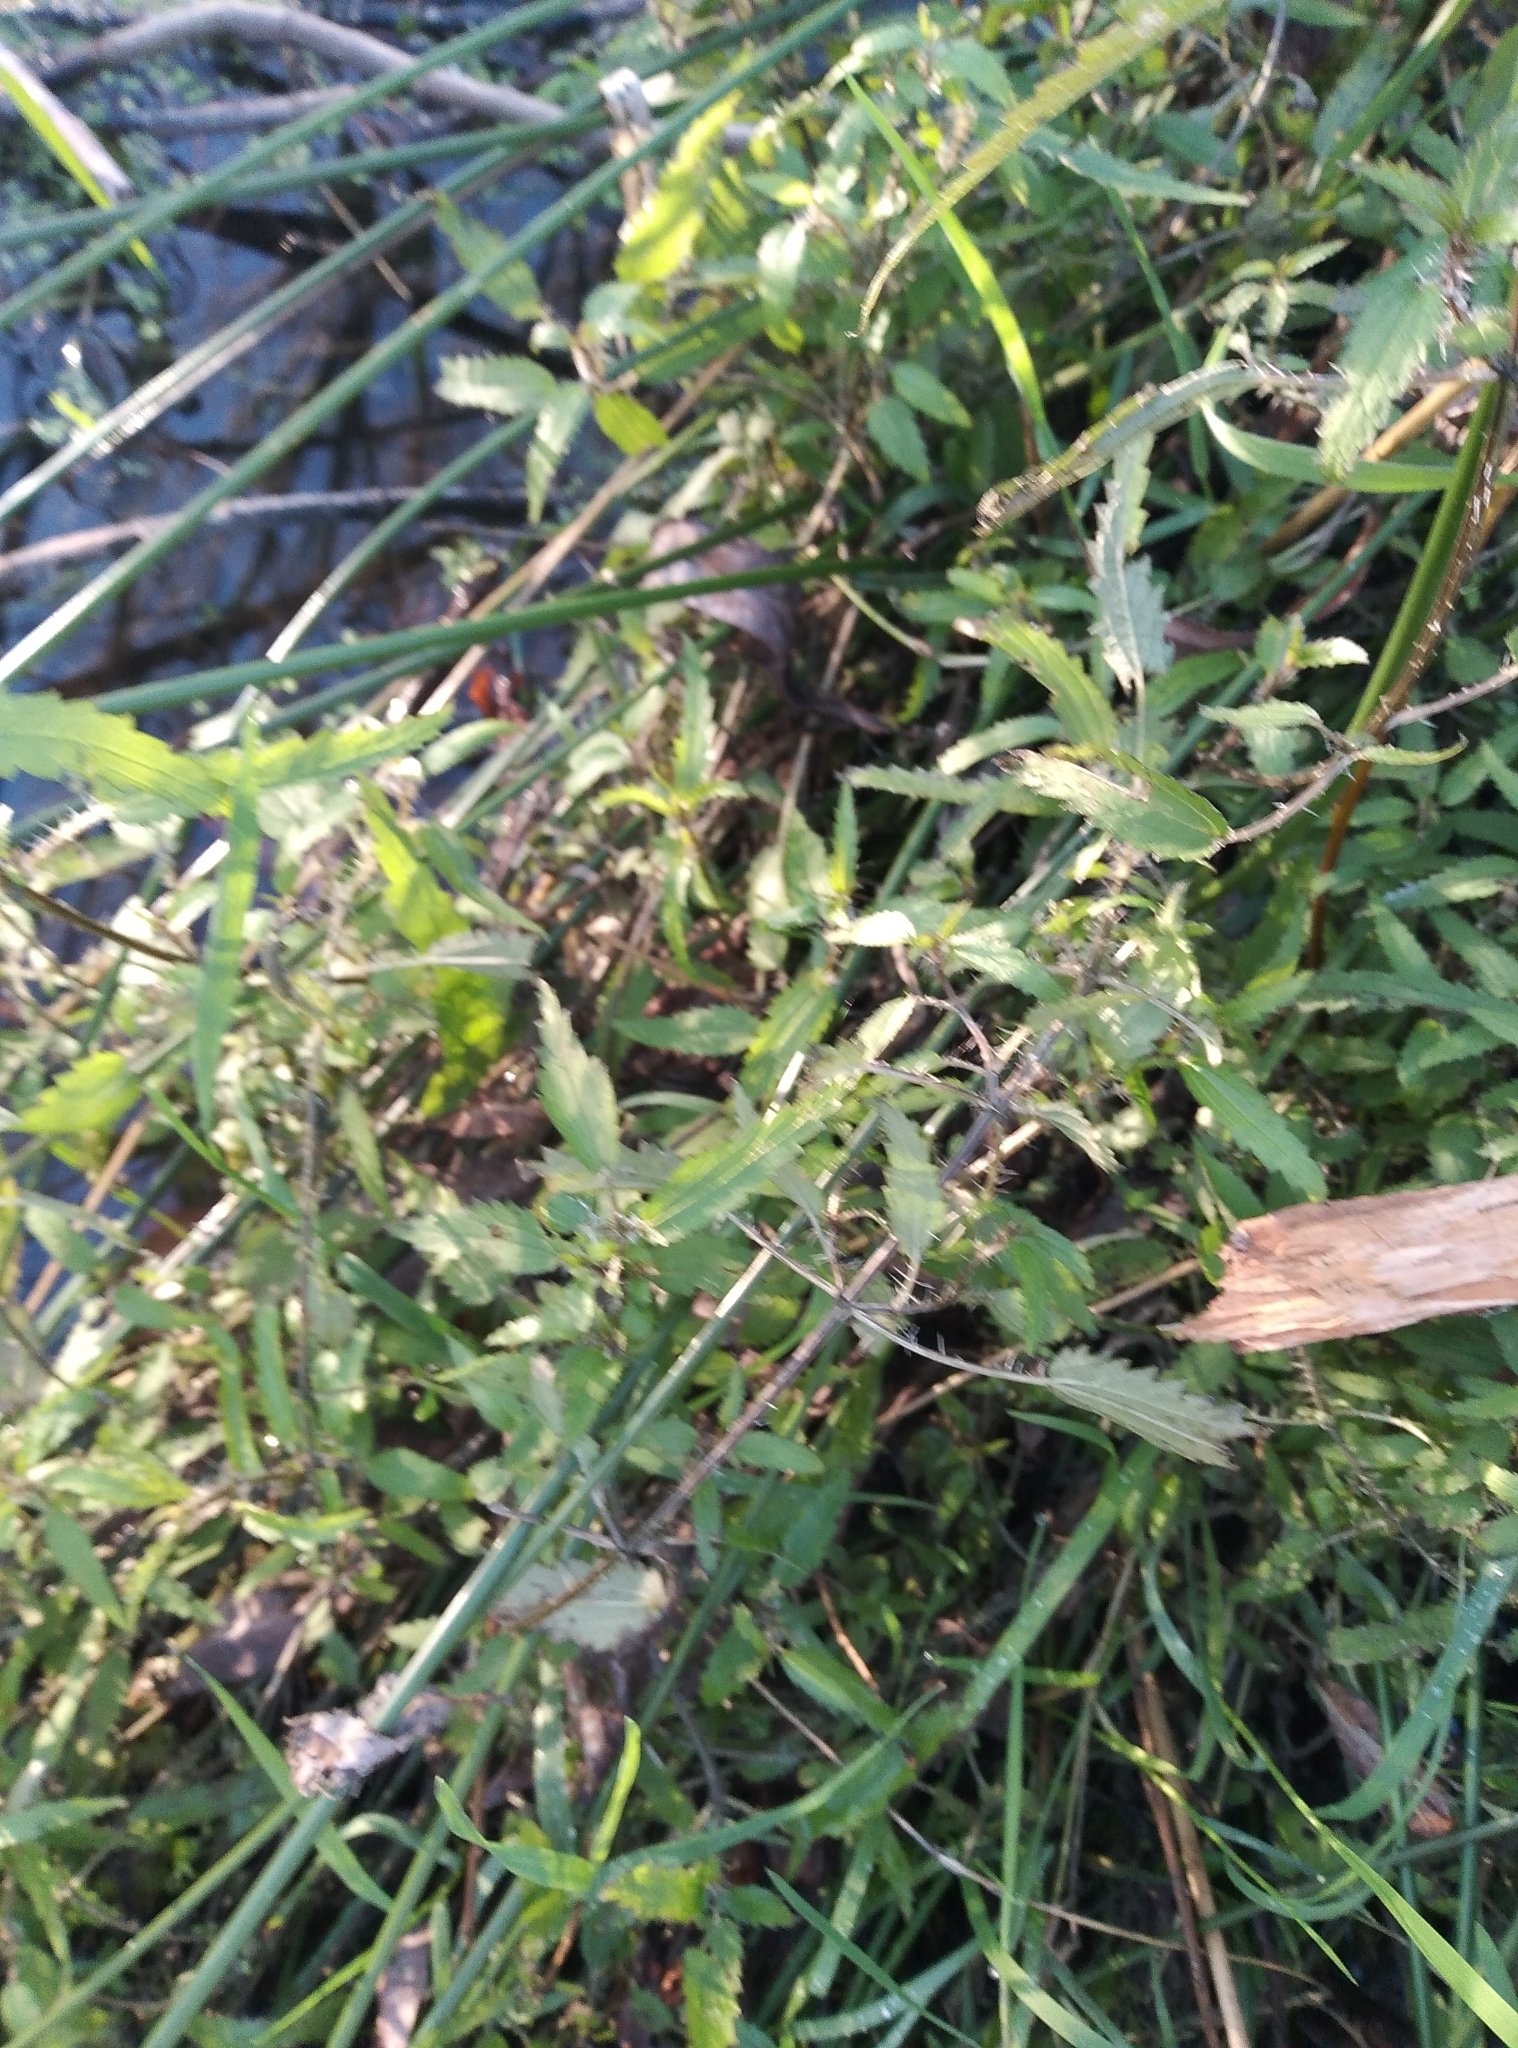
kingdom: Plantae
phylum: Tracheophyta
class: Magnoliopsida
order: Rosales
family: Urticaceae
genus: Urtica
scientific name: Urtica perconfusa
